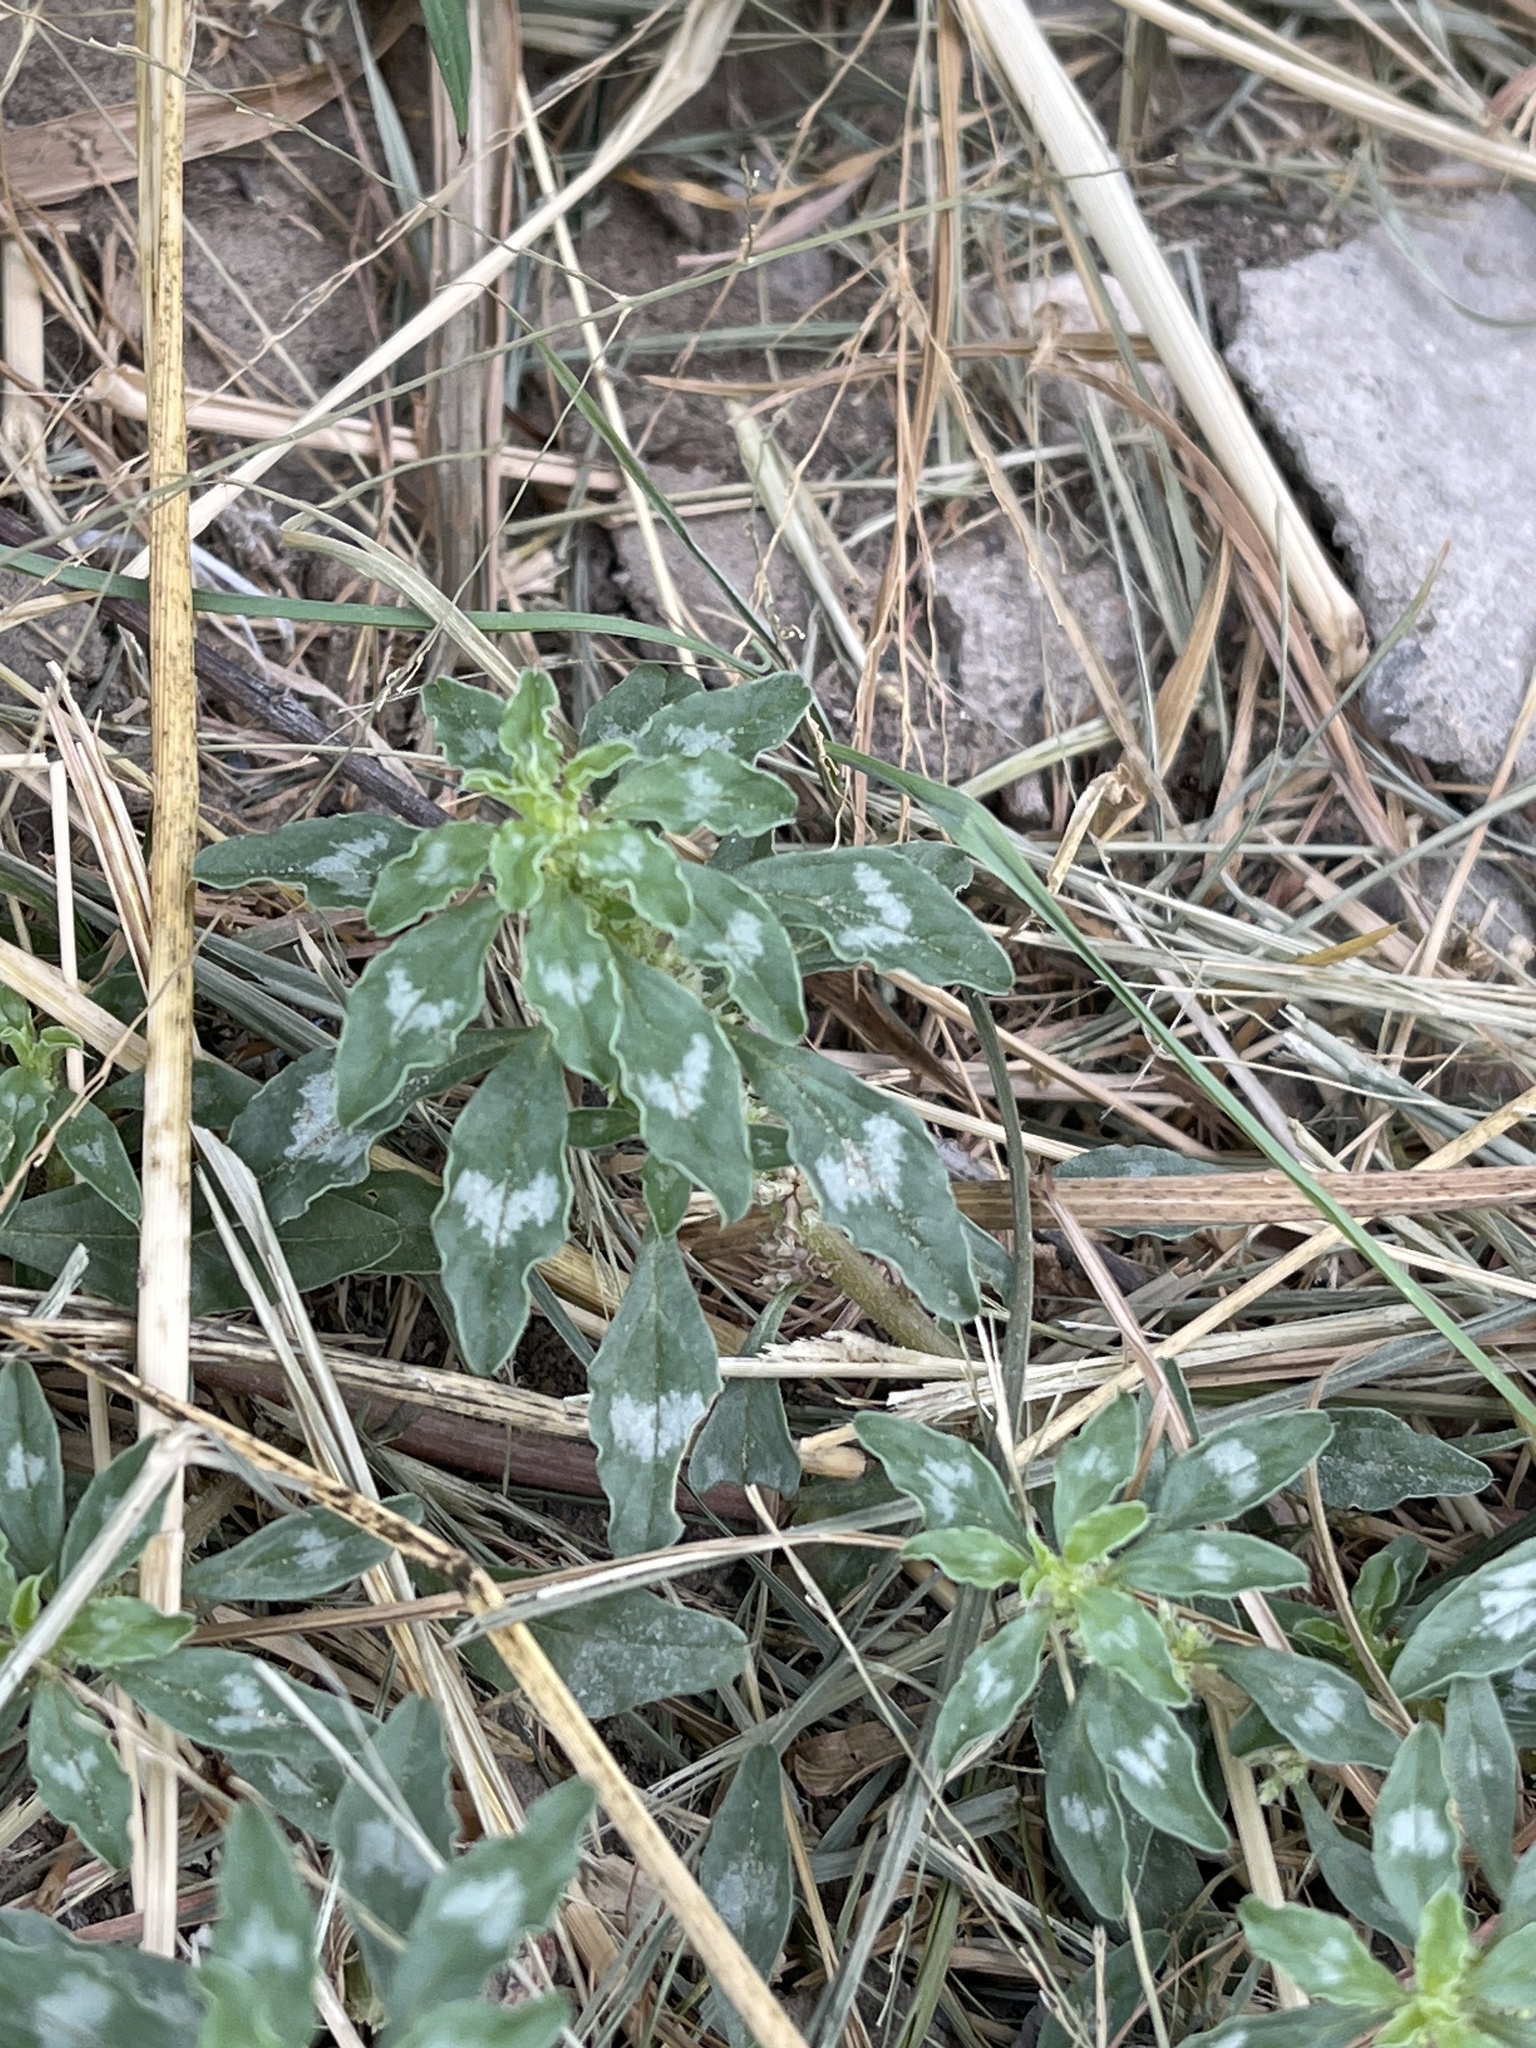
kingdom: Plantae
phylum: Tracheophyta
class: Magnoliopsida
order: Caryophyllales
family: Amaranthaceae
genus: Amaranthus
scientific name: Amaranthus polygonoides
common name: Tropical amaranth
